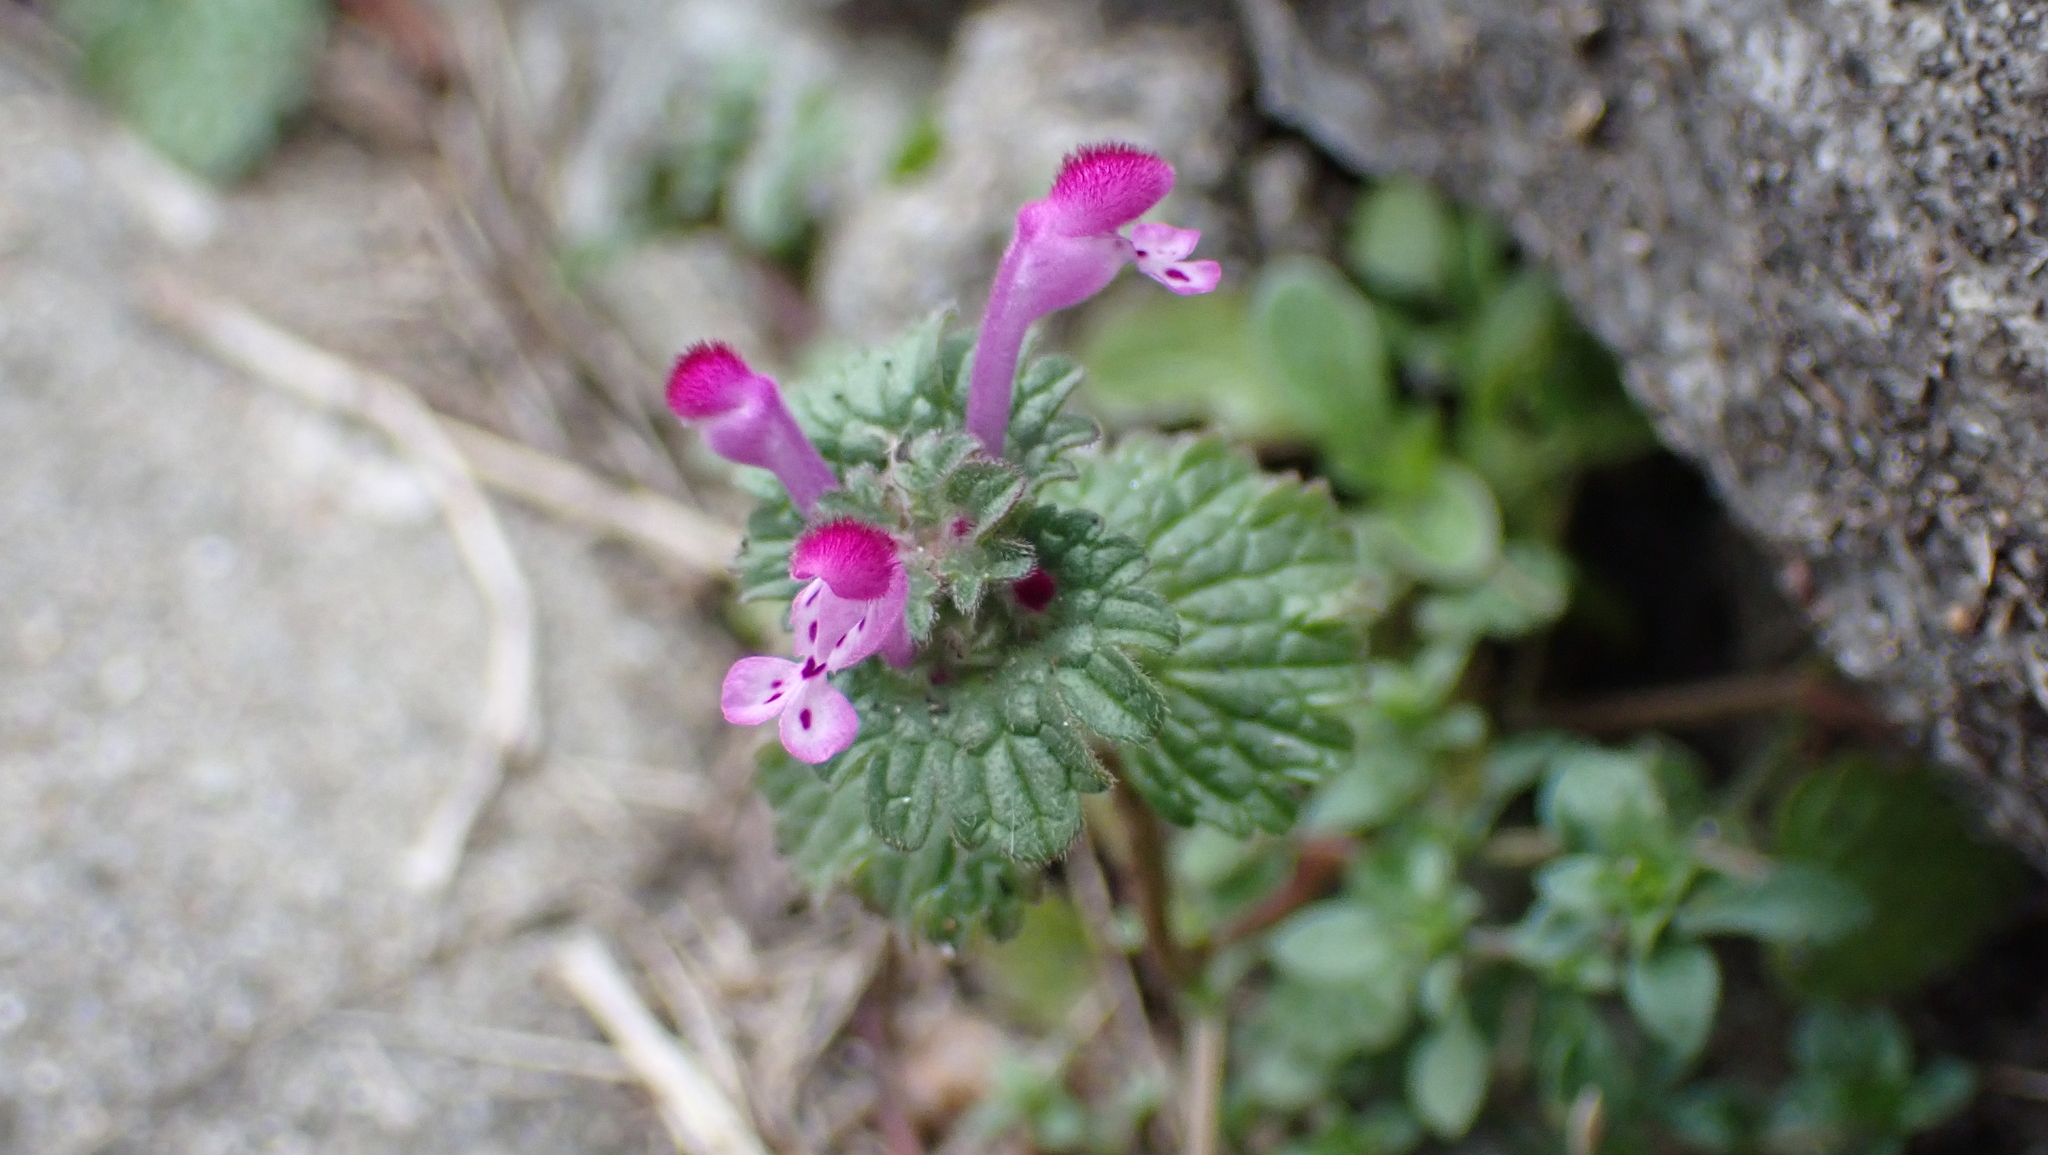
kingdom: Plantae
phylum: Tracheophyta
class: Magnoliopsida
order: Lamiales
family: Lamiaceae
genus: Lamium
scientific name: Lamium amplexicaule
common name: Henbit dead-nettle
